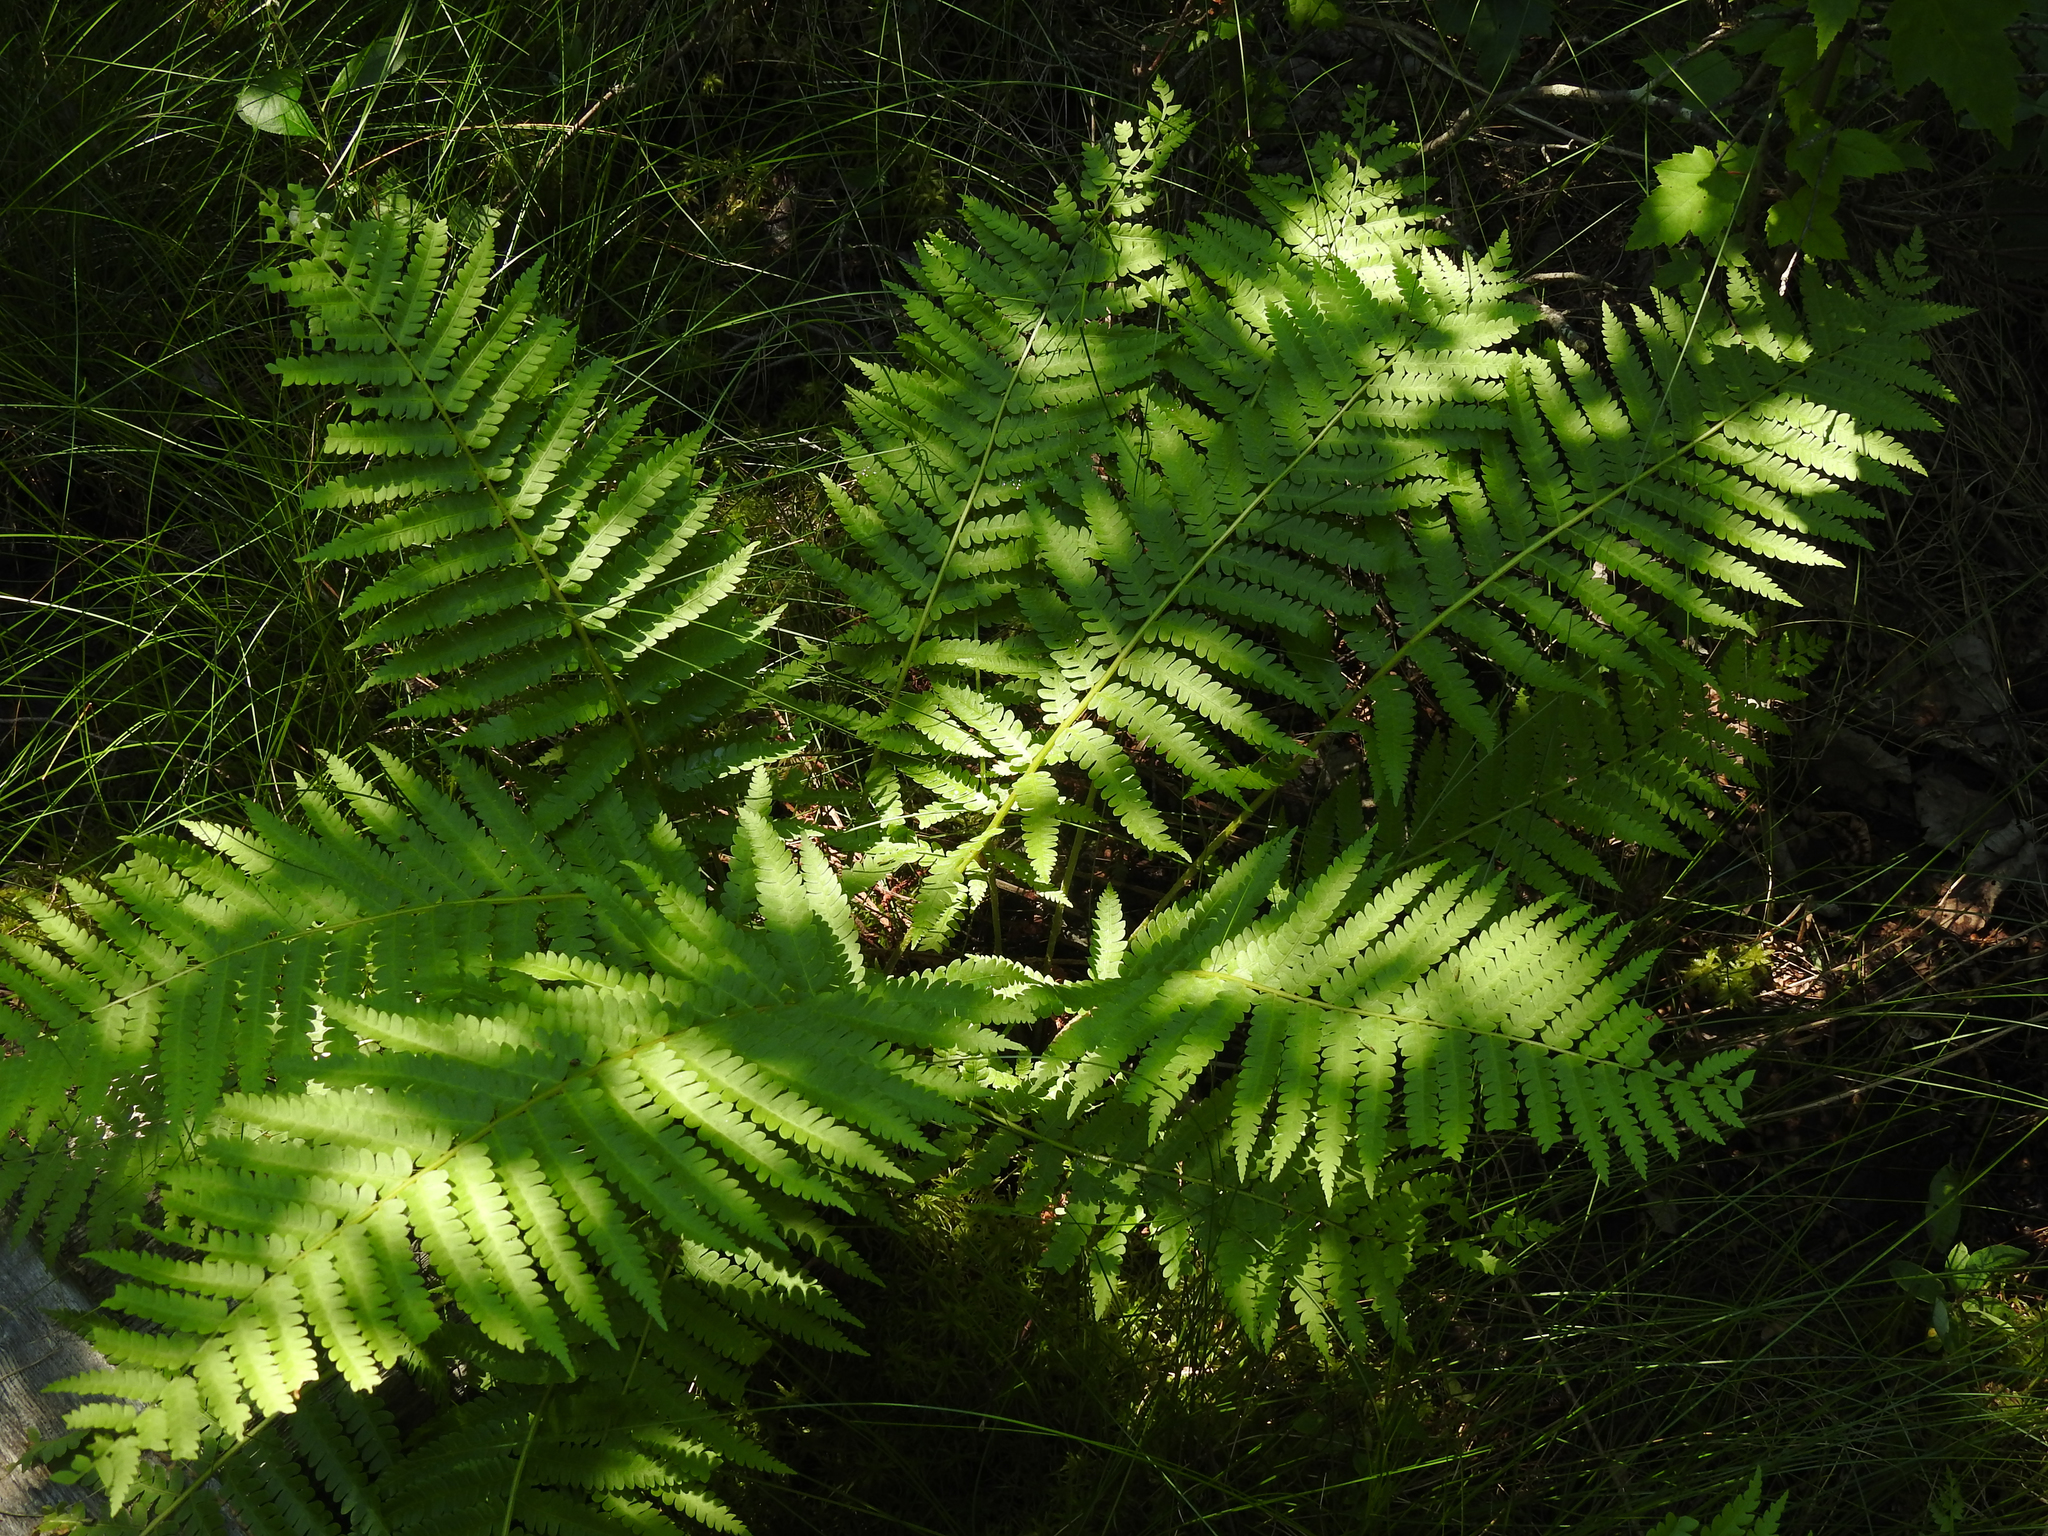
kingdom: Plantae
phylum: Tracheophyta
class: Polypodiopsida
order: Osmundales
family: Osmundaceae
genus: Osmundastrum
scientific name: Osmundastrum cinnamomeum
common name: Cinnamon fern
